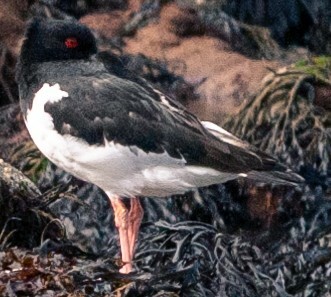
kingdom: Animalia
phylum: Chordata
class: Aves
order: Charadriiformes
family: Haematopodidae
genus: Haematopus
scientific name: Haematopus ostralegus
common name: Eurasian oystercatcher
